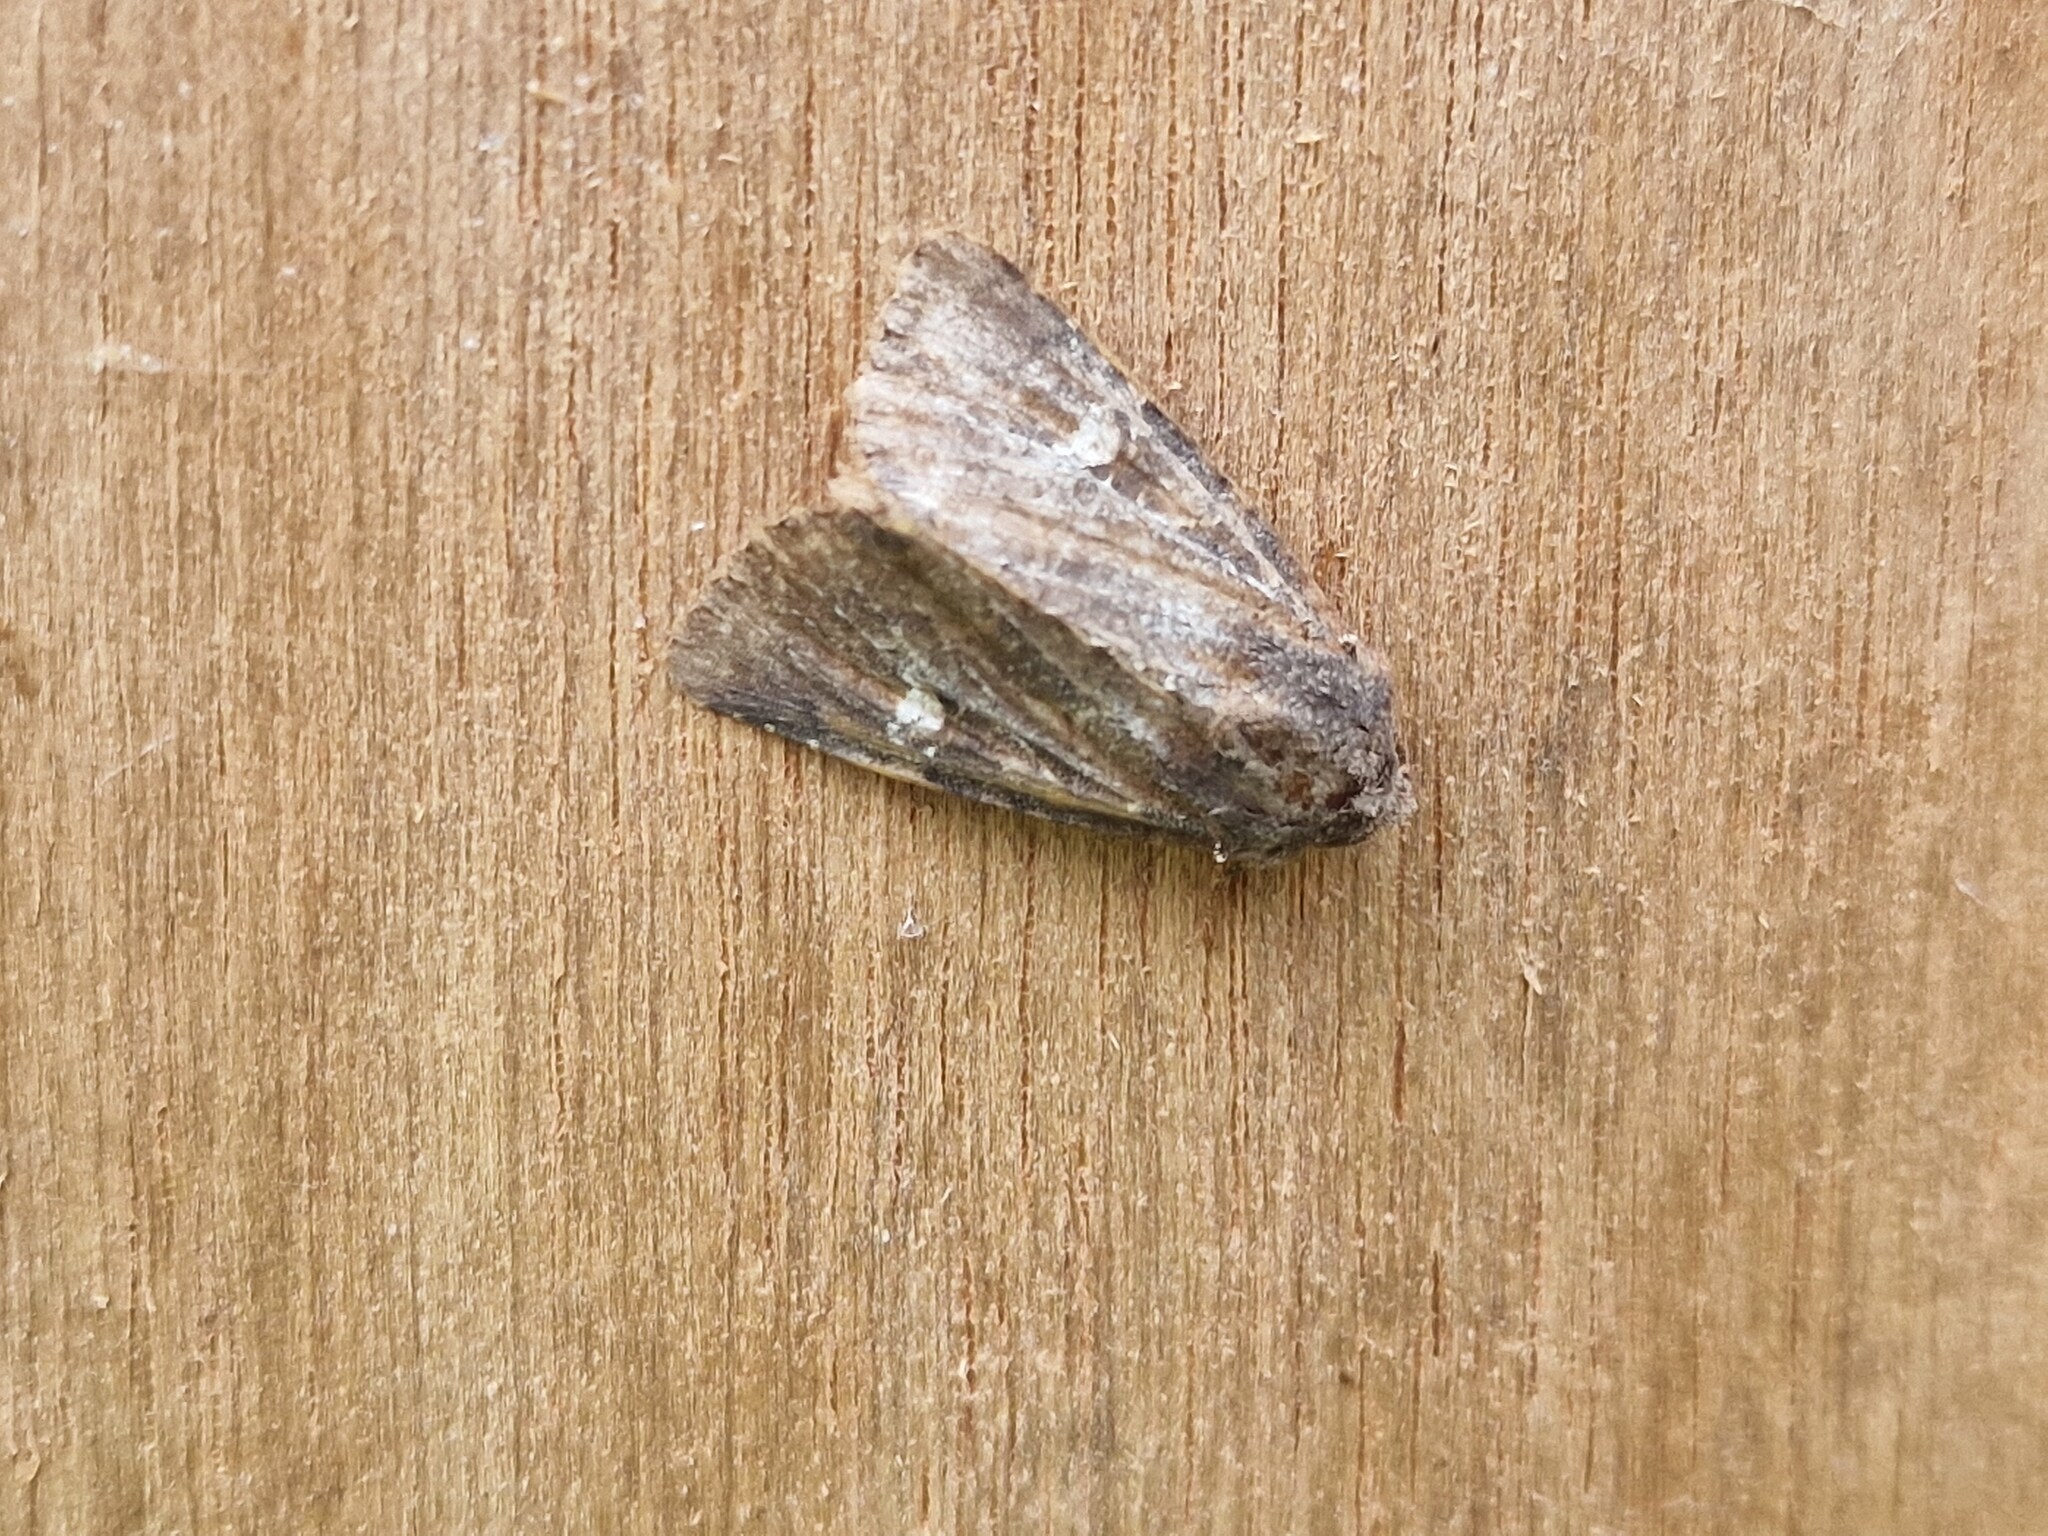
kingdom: Animalia
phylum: Arthropoda
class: Insecta
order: Lepidoptera
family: Noctuidae
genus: Helotropha
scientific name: Helotropha leucostigma
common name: The crescent
